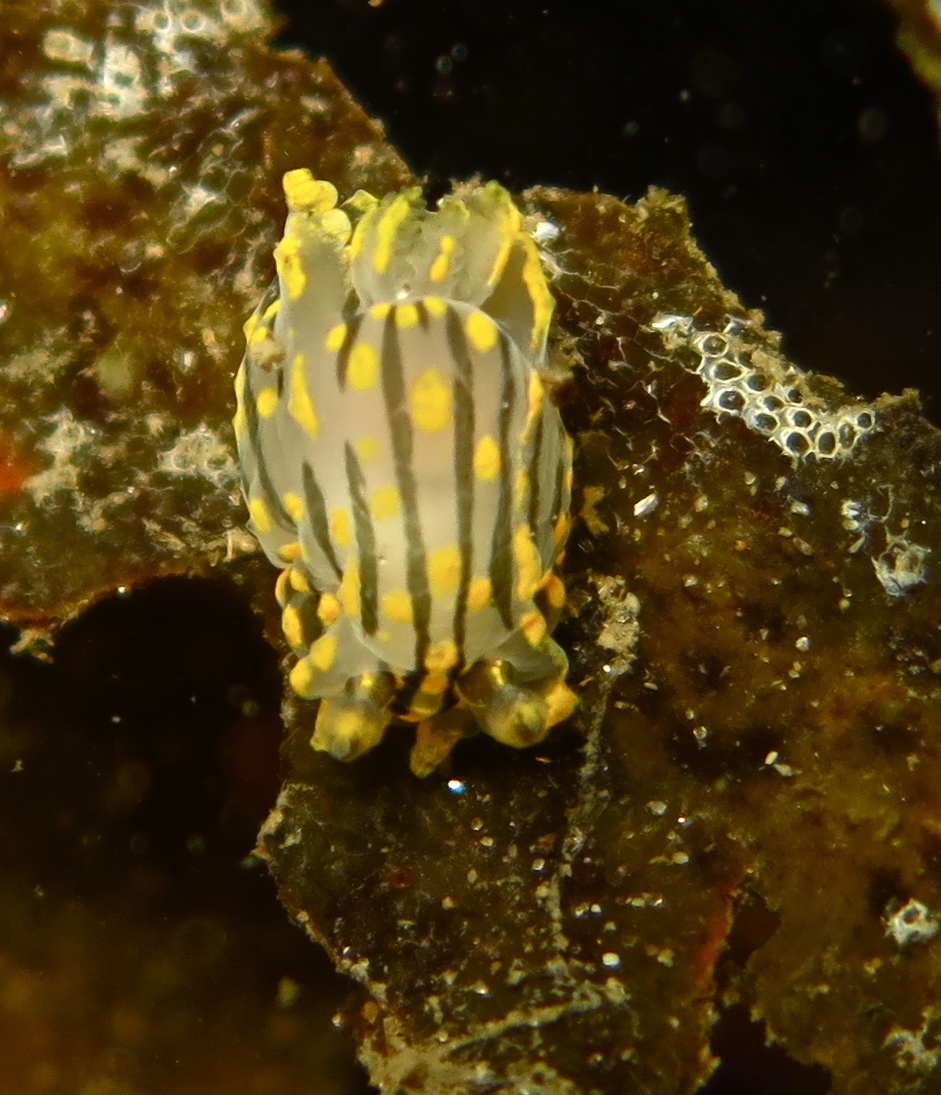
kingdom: Animalia
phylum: Mollusca
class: Gastropoda
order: Nudibranchia
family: Polyceridae
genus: Polycera
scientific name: Polycera quadrilineata
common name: Four-striped polycera
